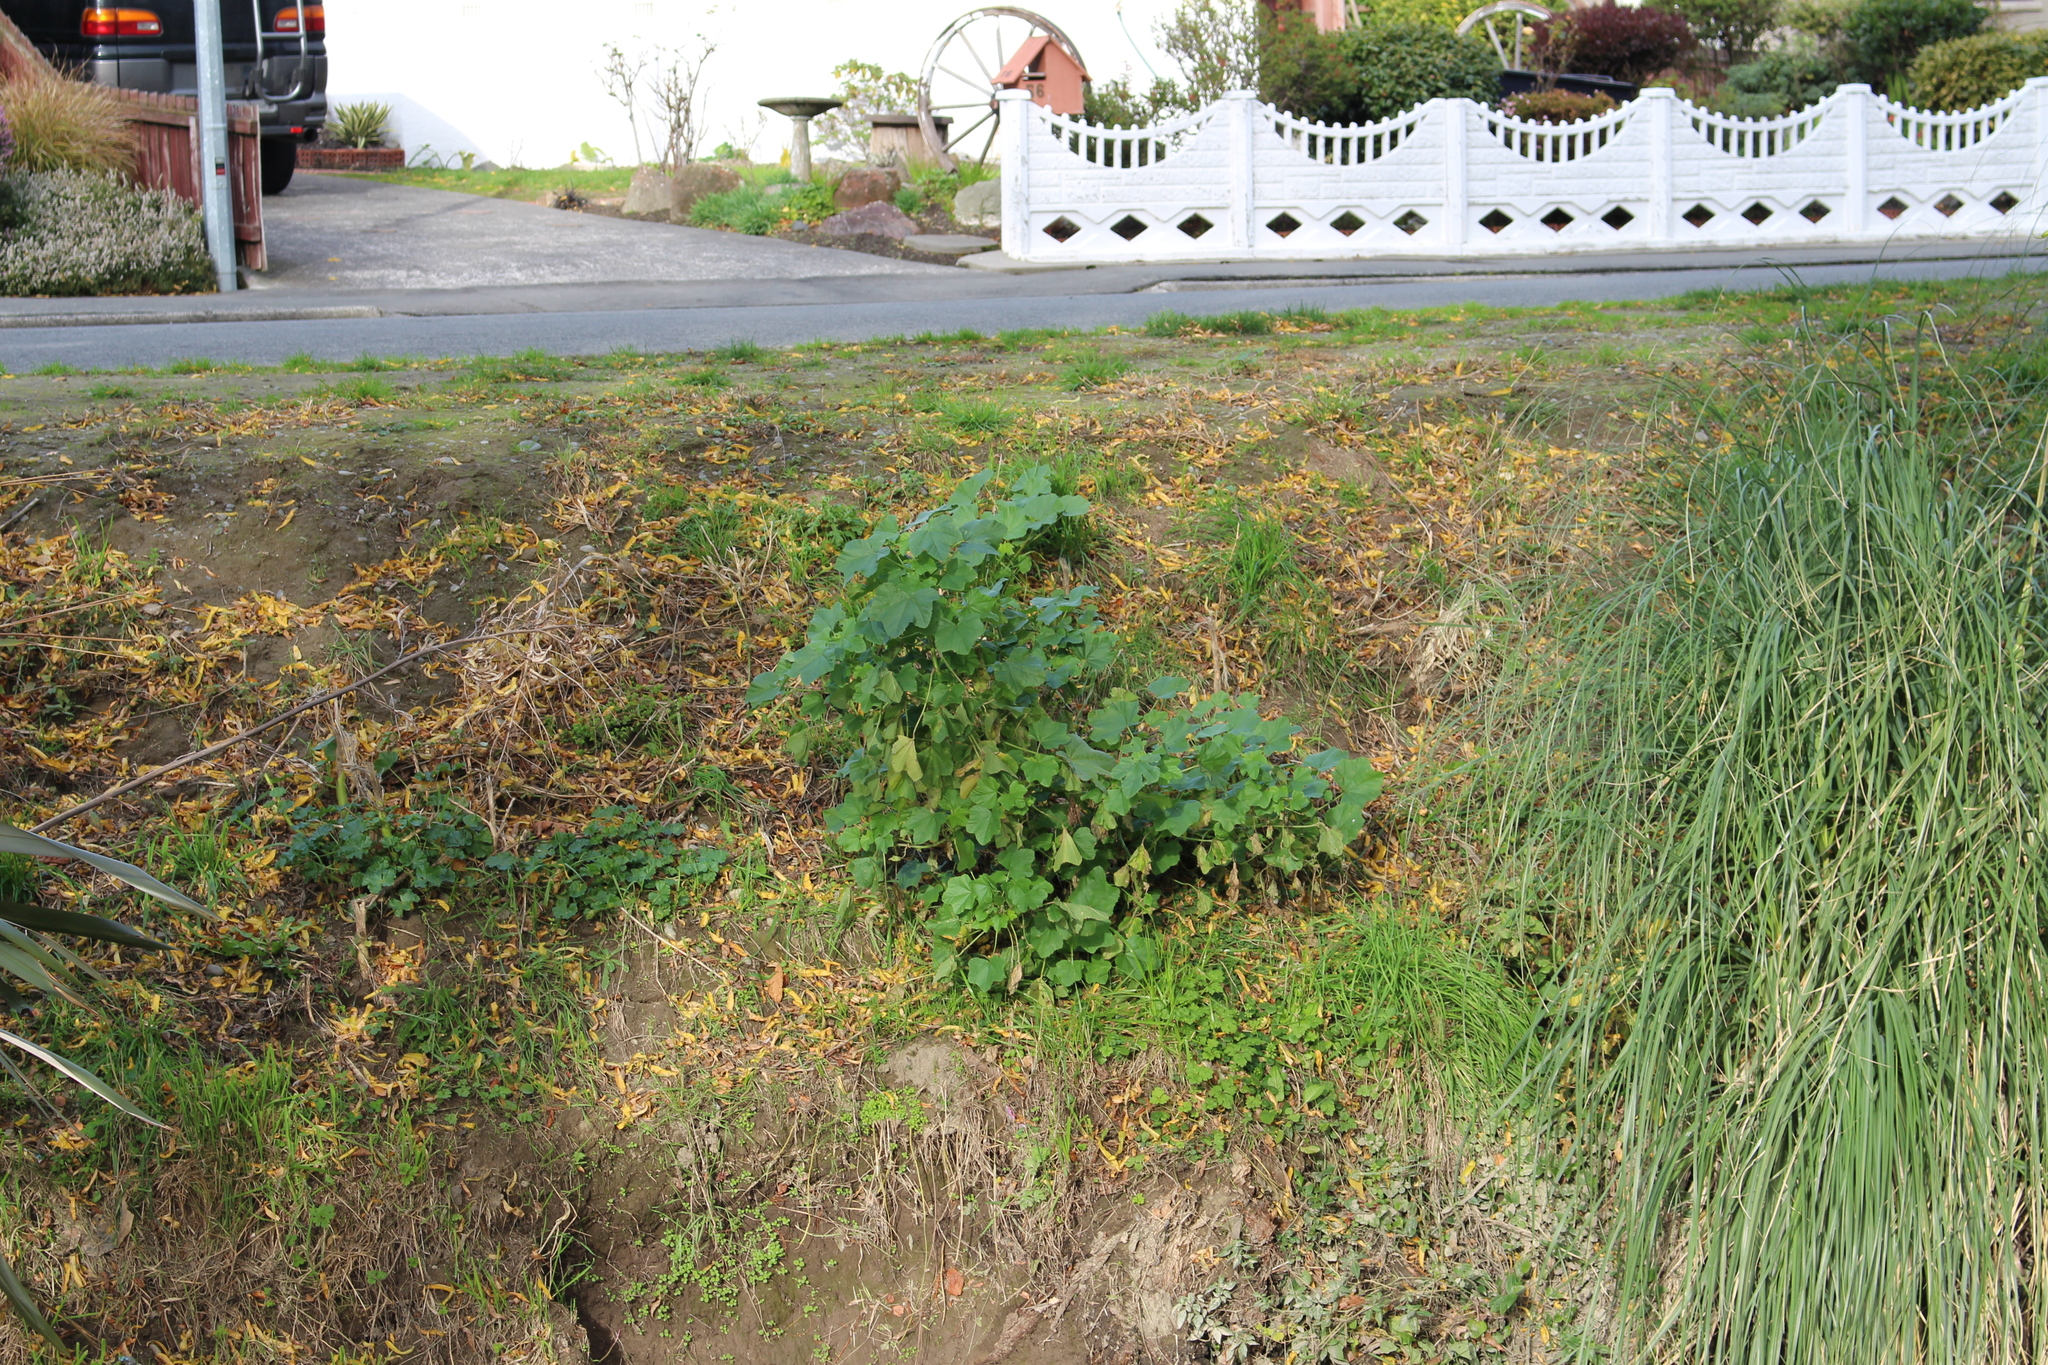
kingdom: Plantae
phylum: Tracheophyta
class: Magnoliopsida
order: Malvales
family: Malvaceae
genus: Malva
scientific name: Malva arborea
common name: Tree mallow
